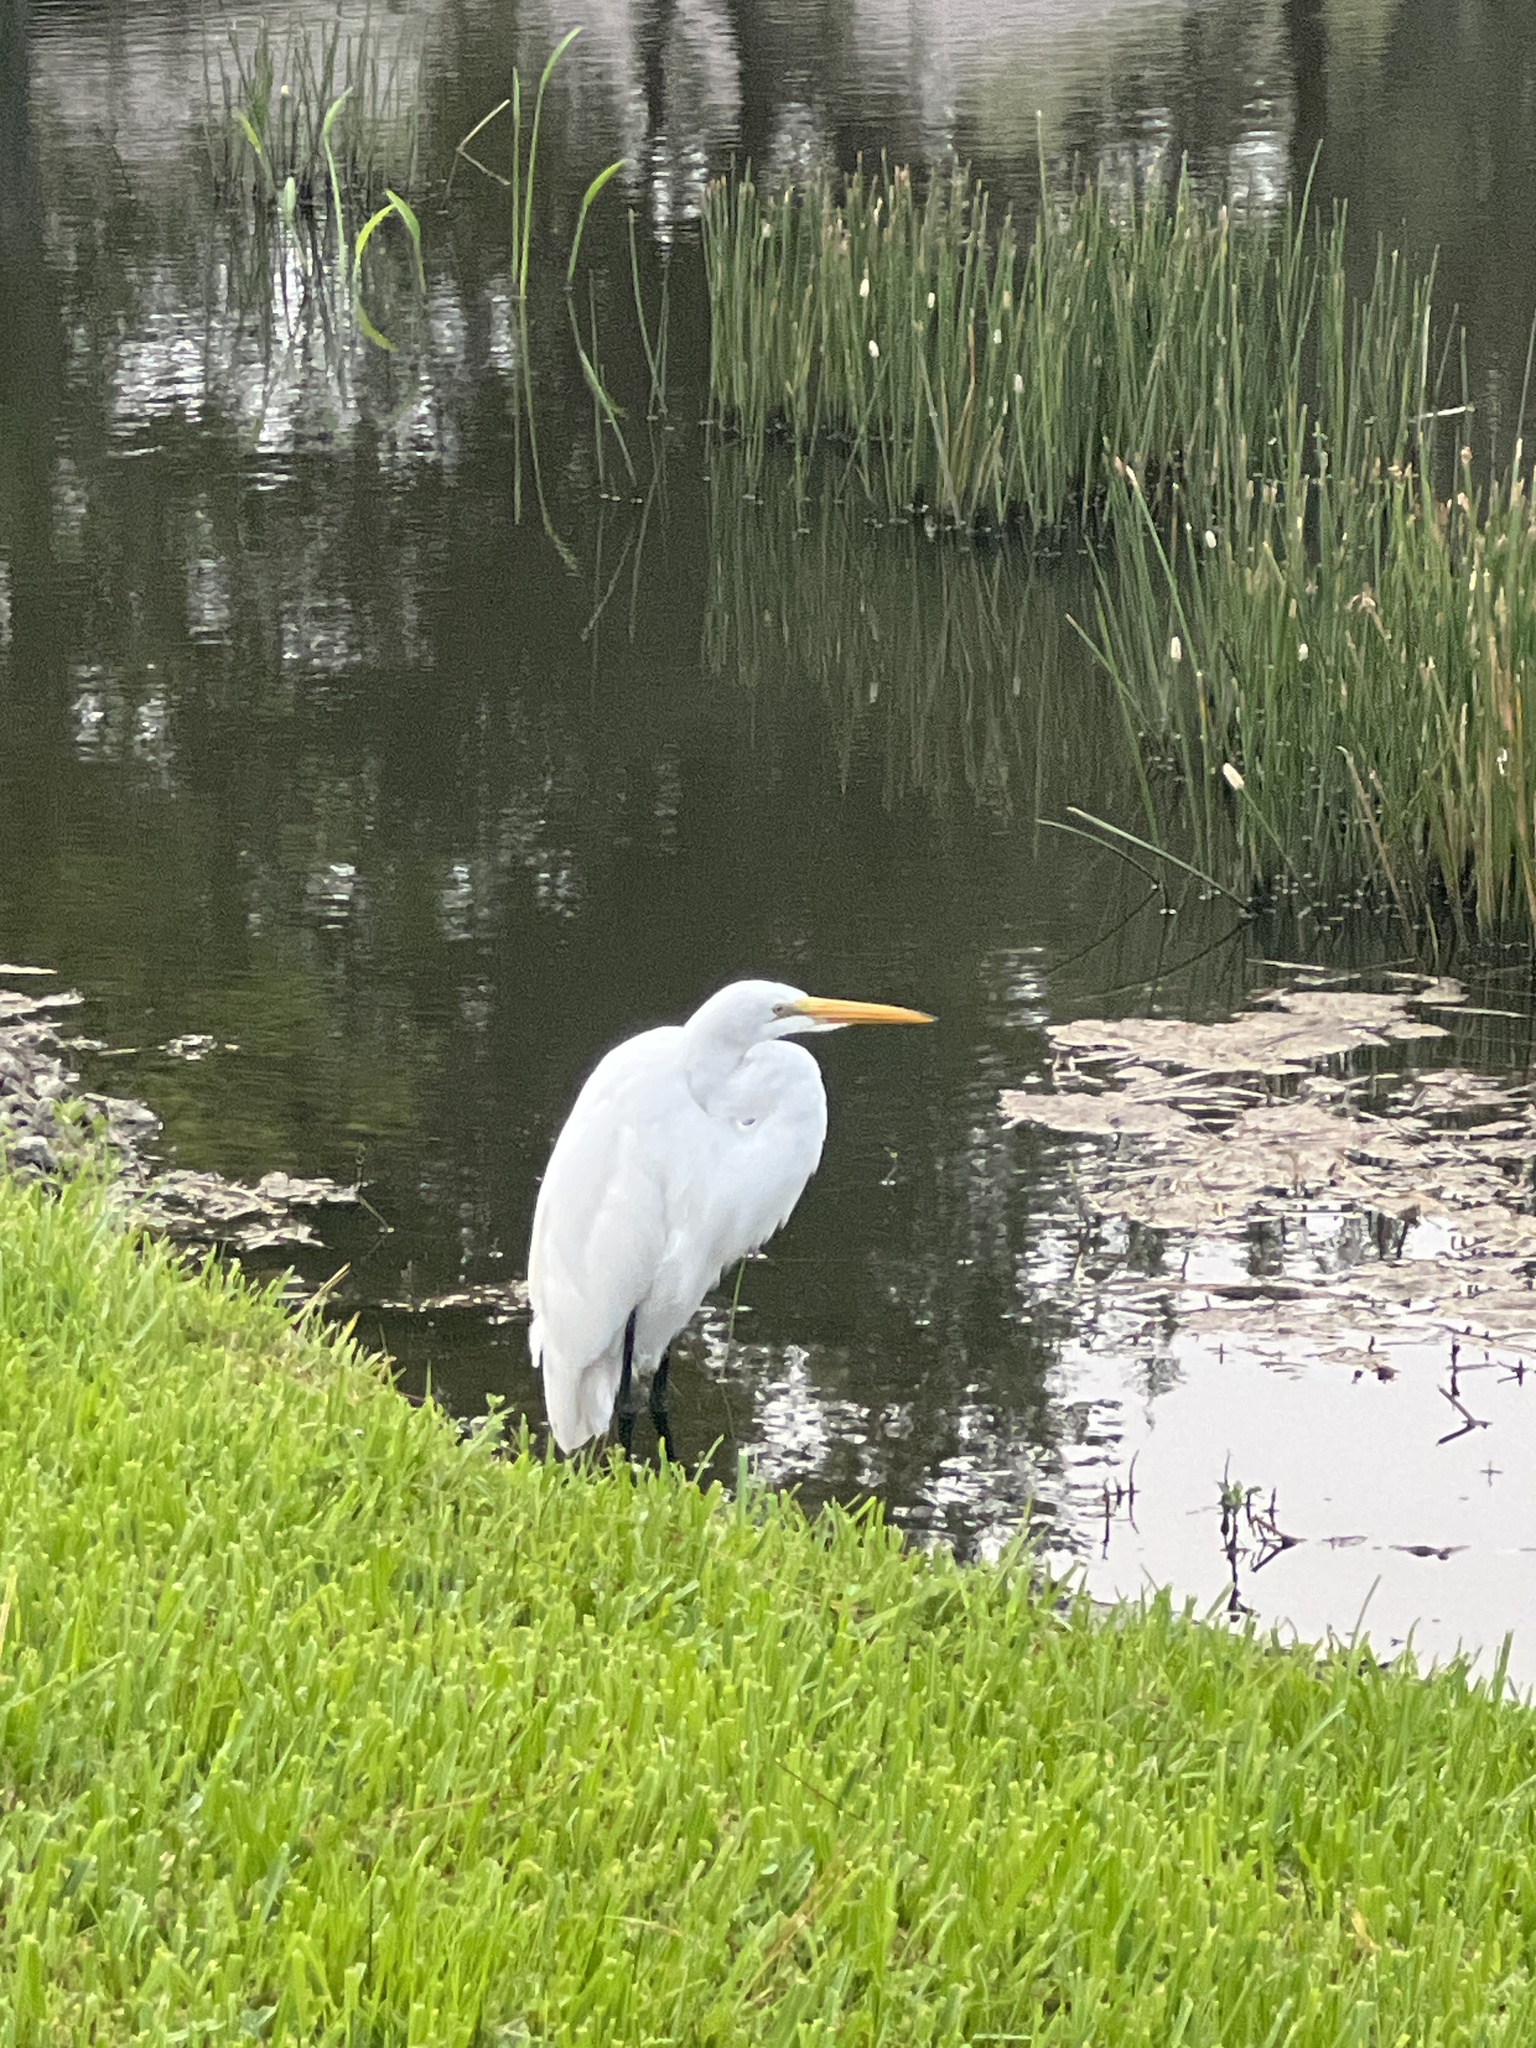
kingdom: Animalia
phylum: Chordata
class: Aves
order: Pelecaniformes
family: Ardeidae
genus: Ardea
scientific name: Ardea alba
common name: Great egret
